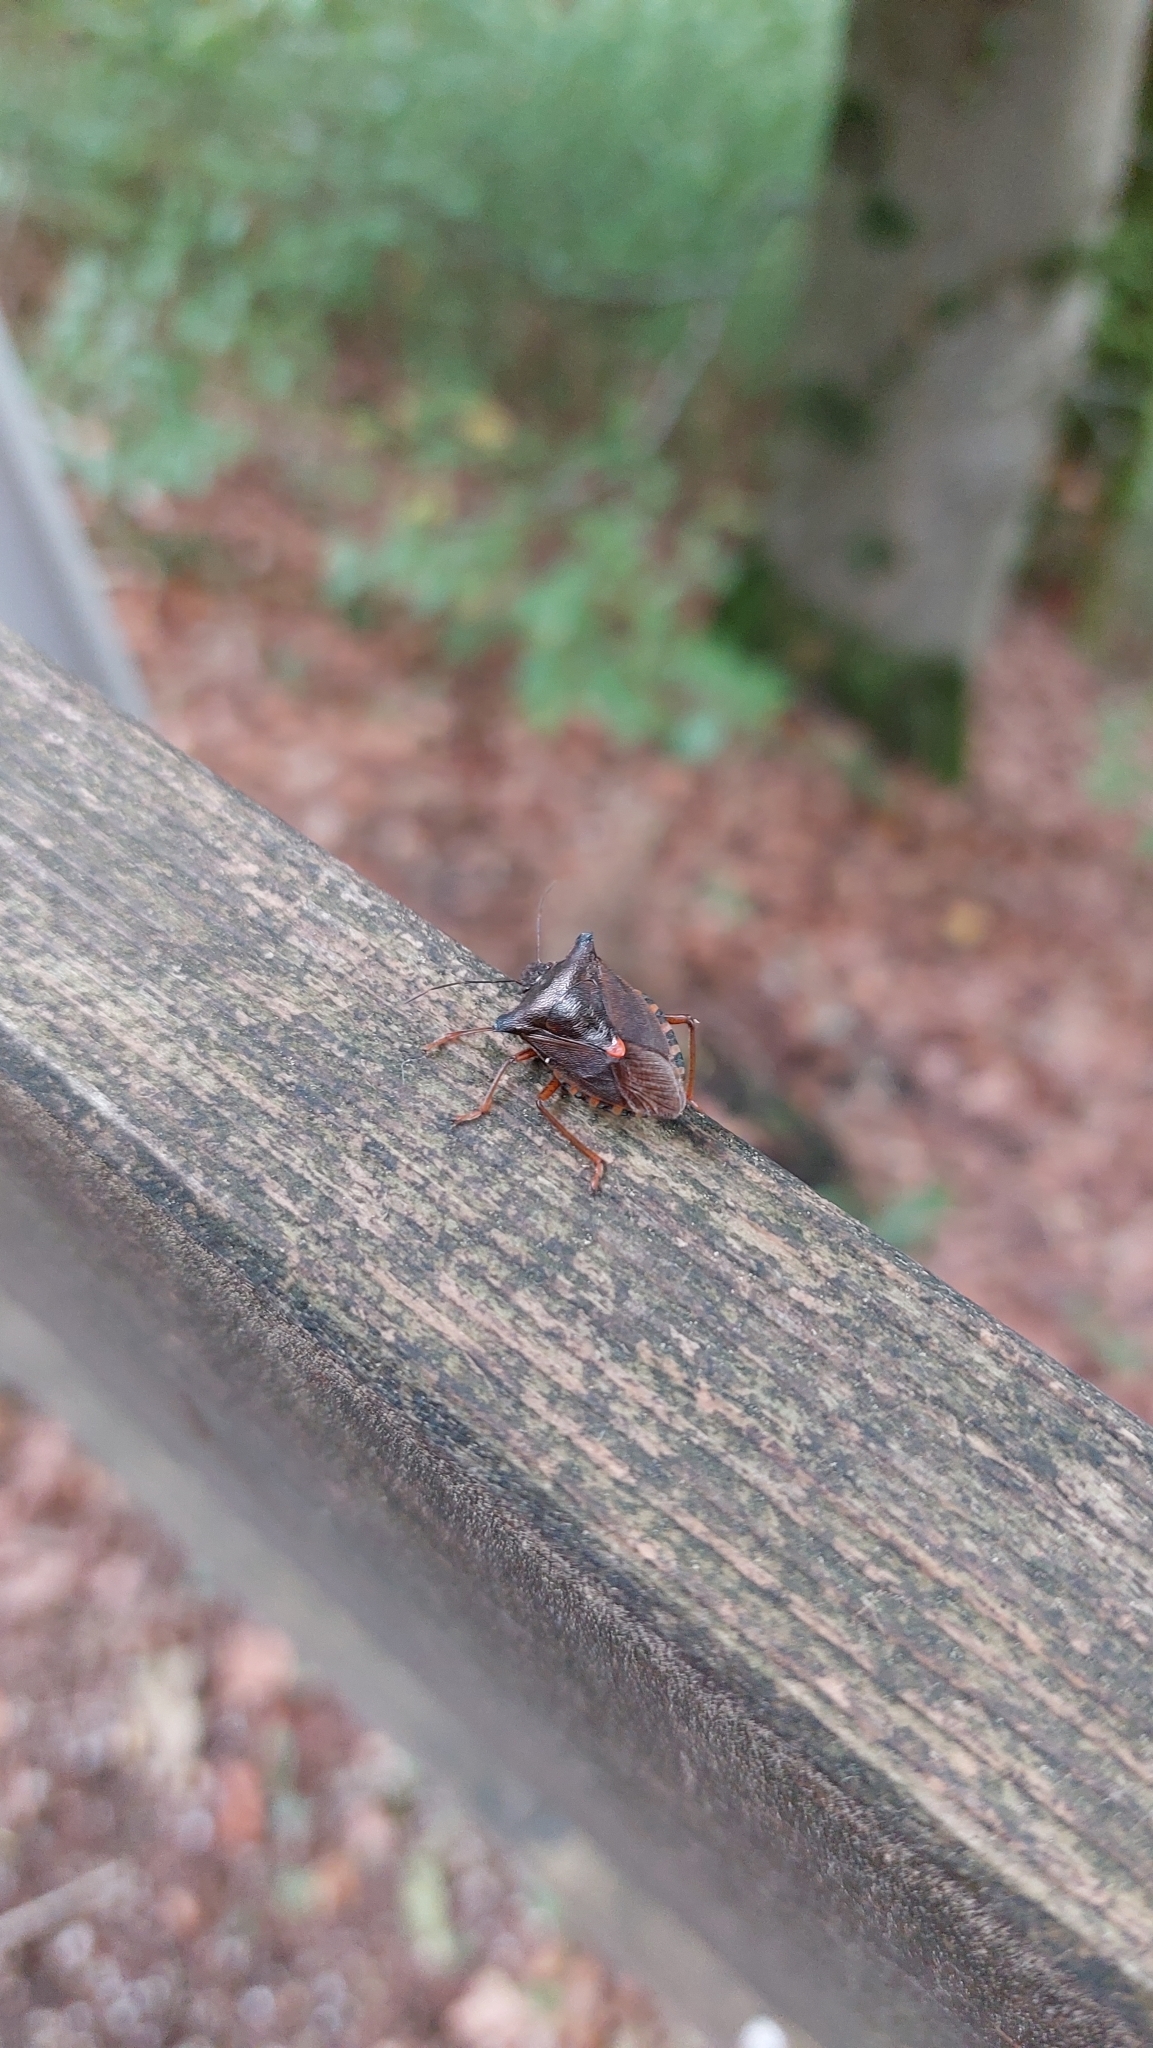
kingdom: Animalia
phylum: Arthropoda
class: Insecta
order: Hemiptera
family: Pentatomidae
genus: Pentatoma
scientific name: Pentatoma rufipes
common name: Forest bug
